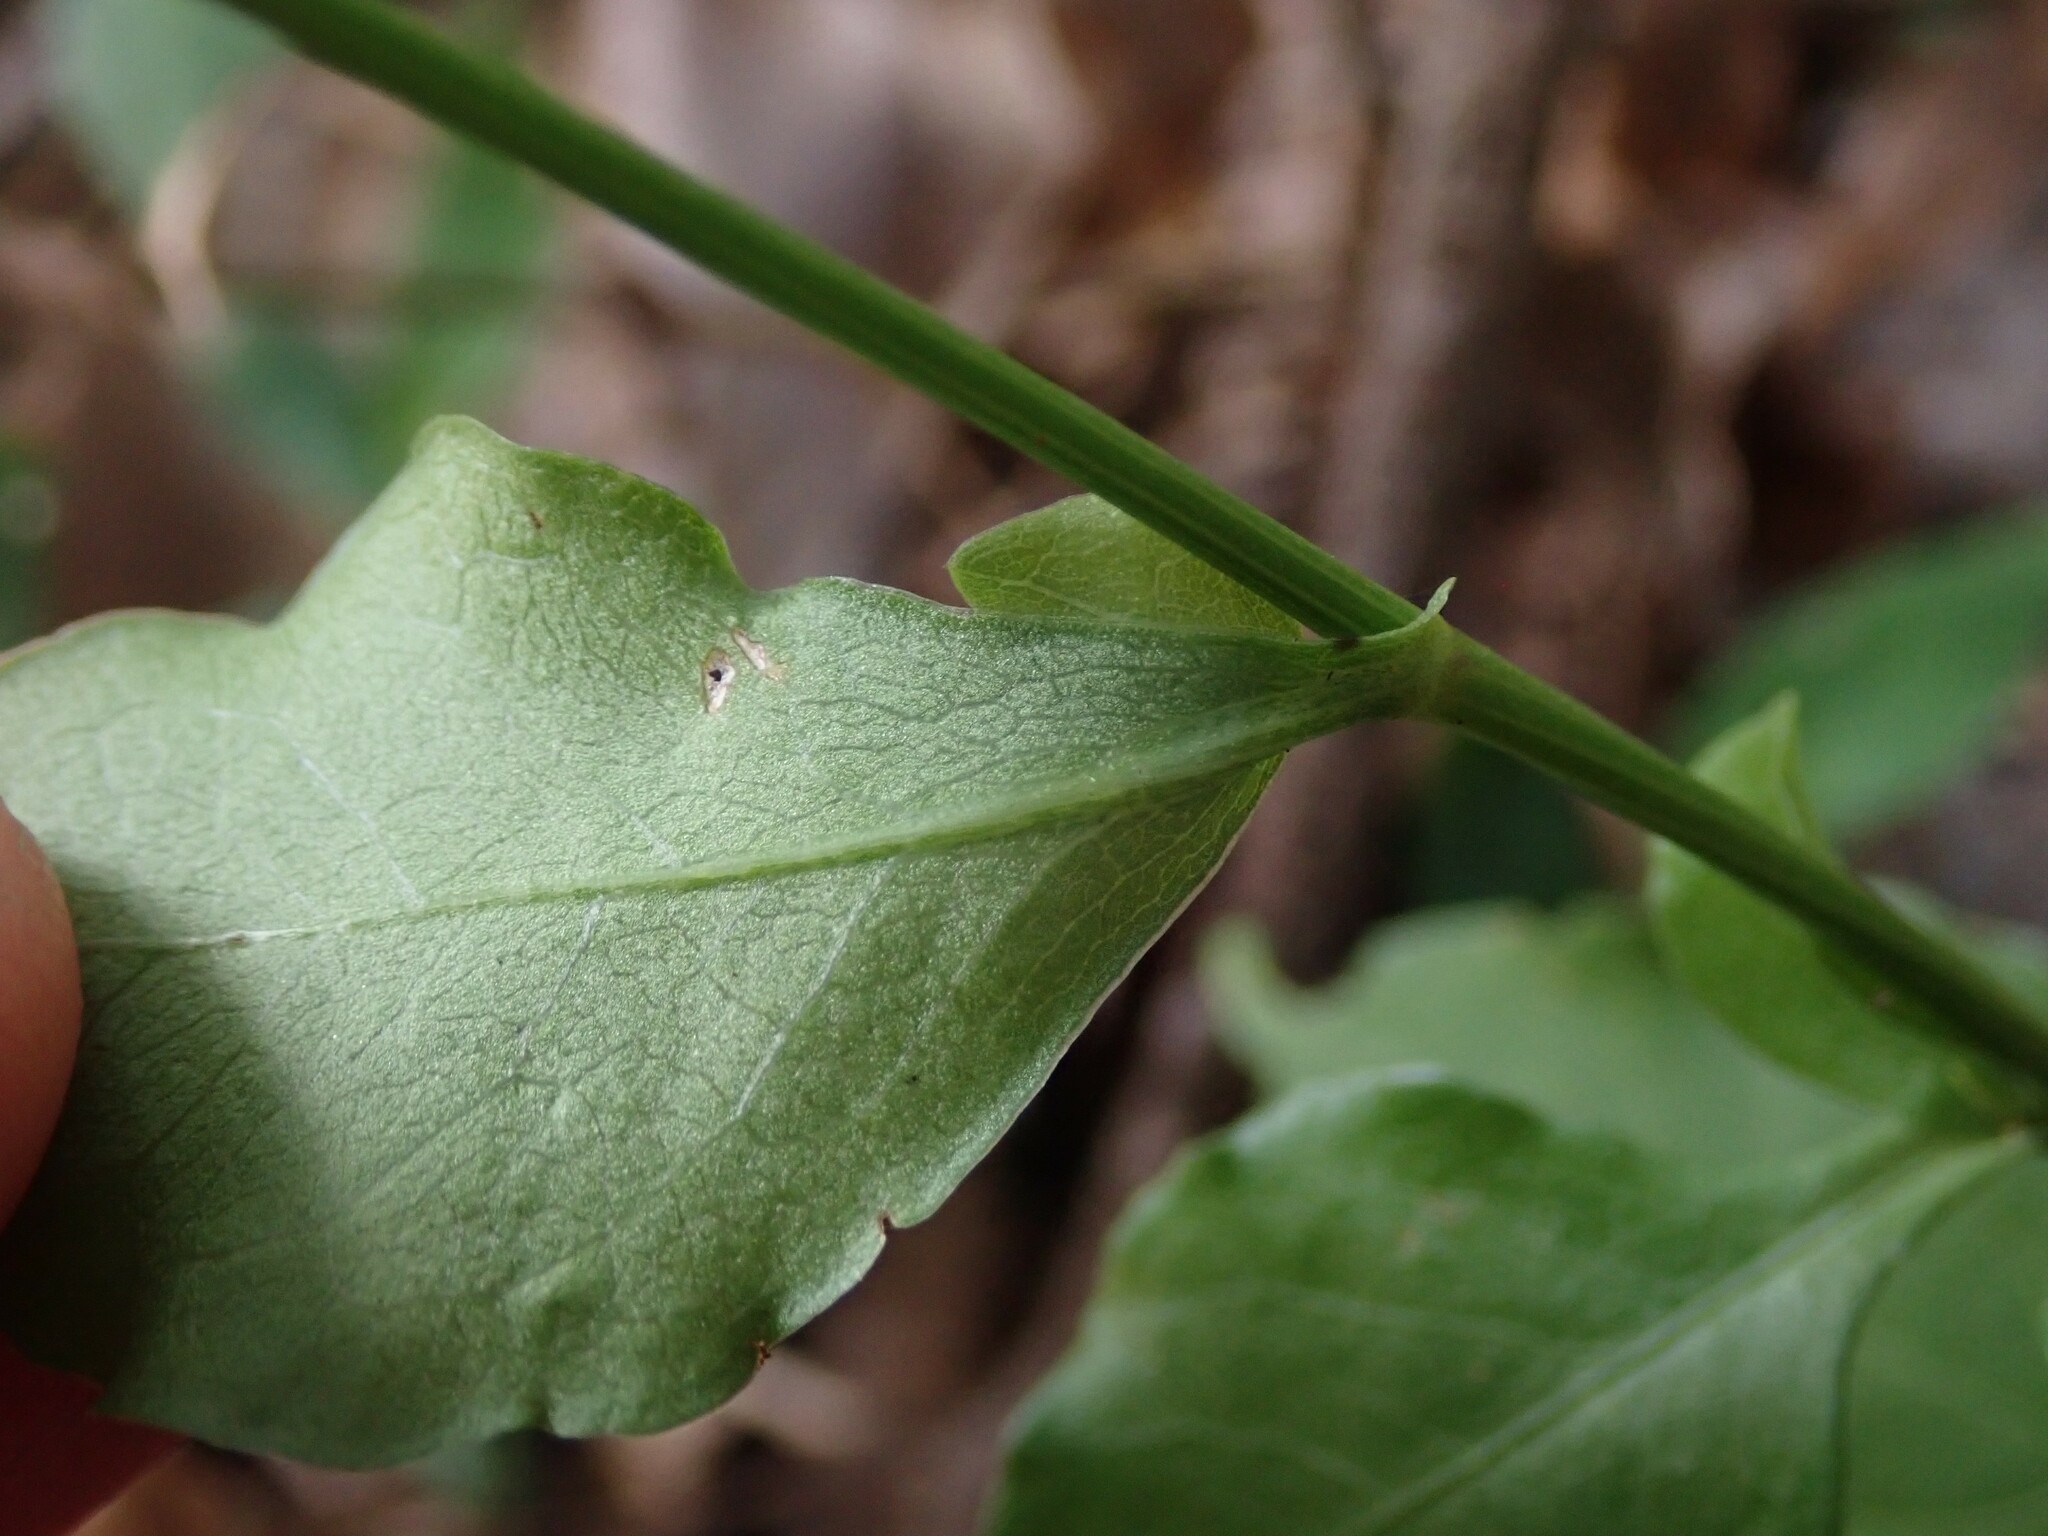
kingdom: Plantae
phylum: Tracheophyta
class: Magnoliopsida
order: Caryophyllales
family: Plumbaginaceae
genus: Plumbago
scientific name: Plumbago zeylanica
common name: Doctorbush
